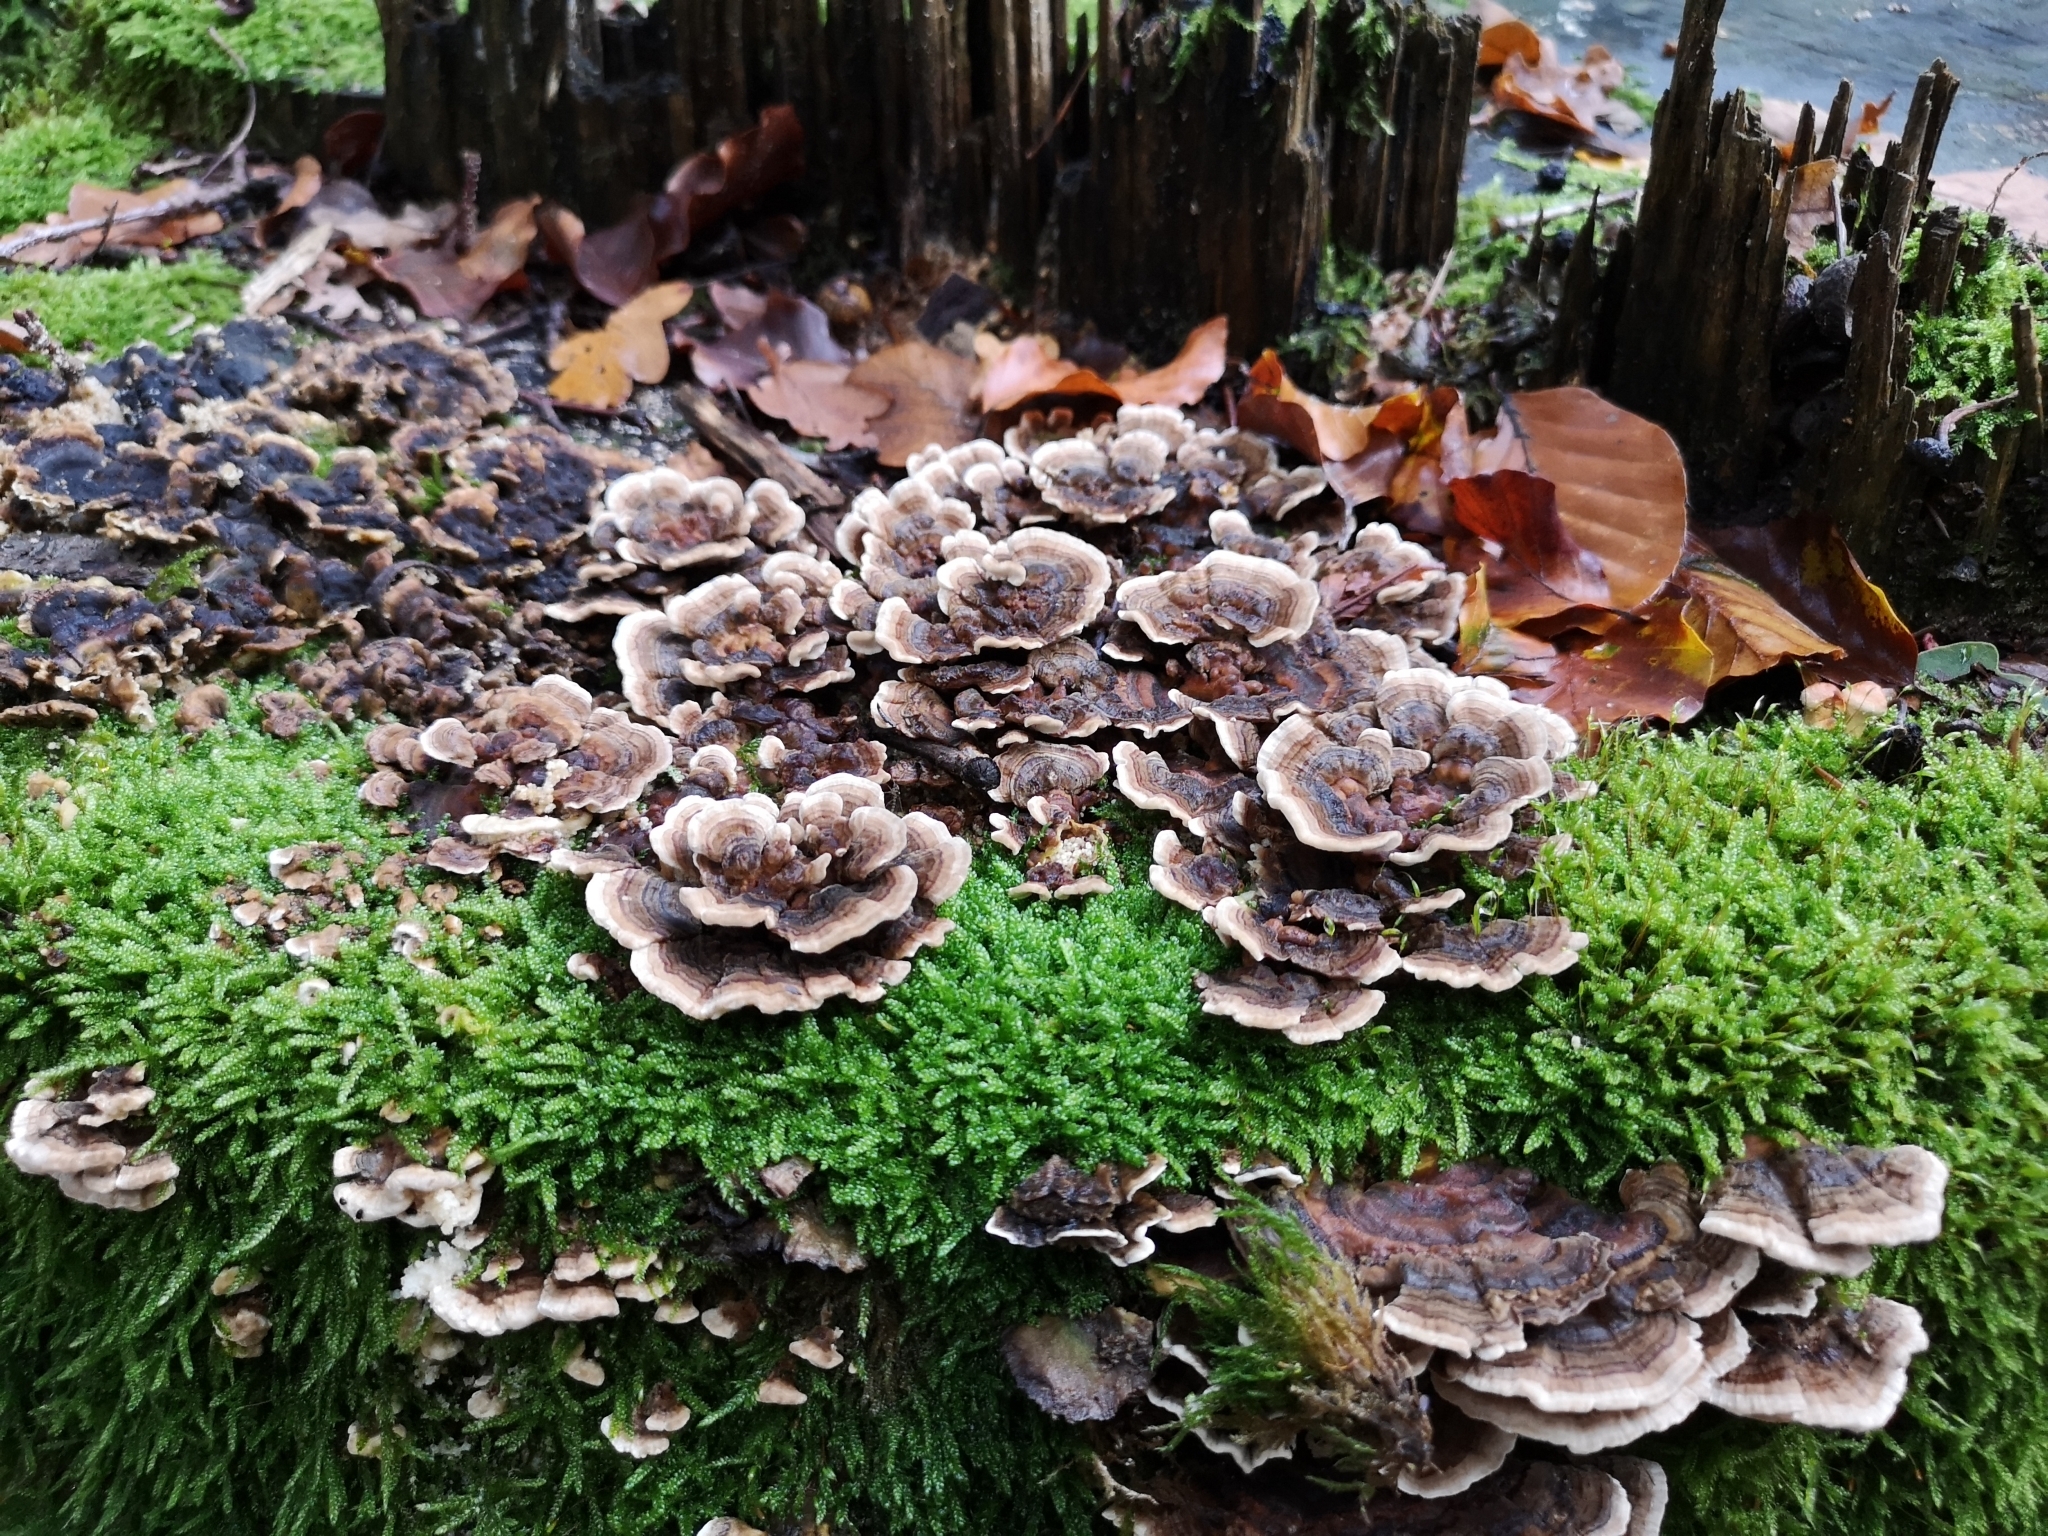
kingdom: Fungi
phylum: Basidiomycota
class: Agaricomycetes
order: Polyporales
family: Polyporaceae
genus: Trametes
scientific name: Trametes versicolor
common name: Turkeytail
